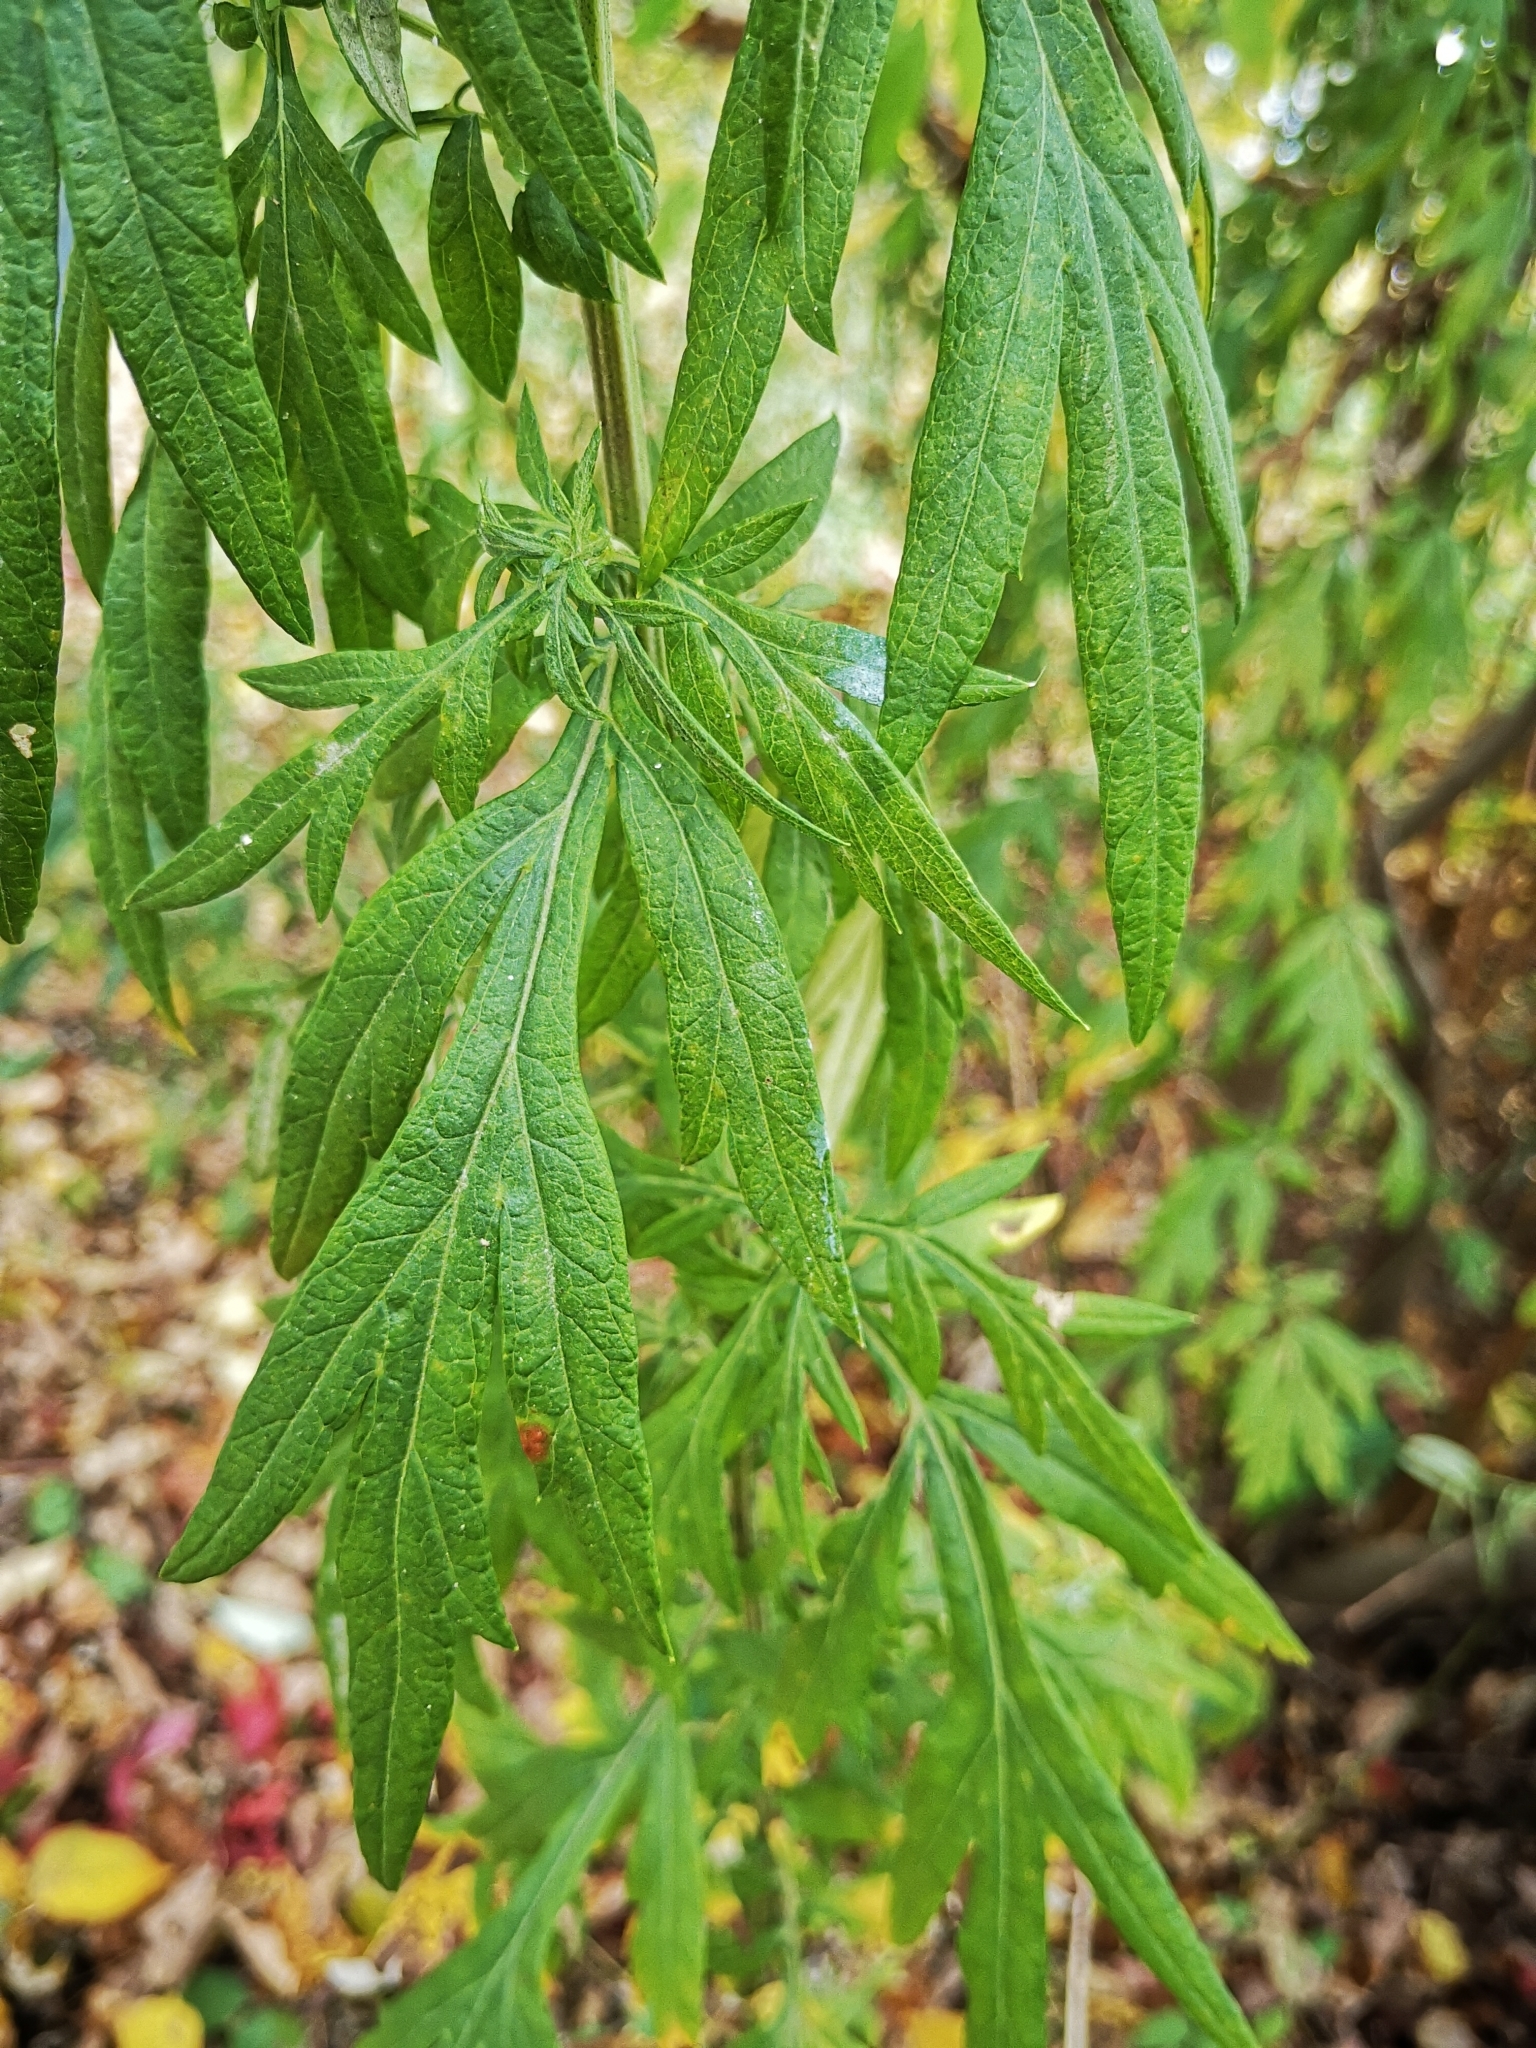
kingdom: Plantae
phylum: Tracheophyta
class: Magnoliopsida
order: Asterales
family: Asteraceae
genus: Artemisia
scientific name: Artemisia vulgaris
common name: Mugwort
